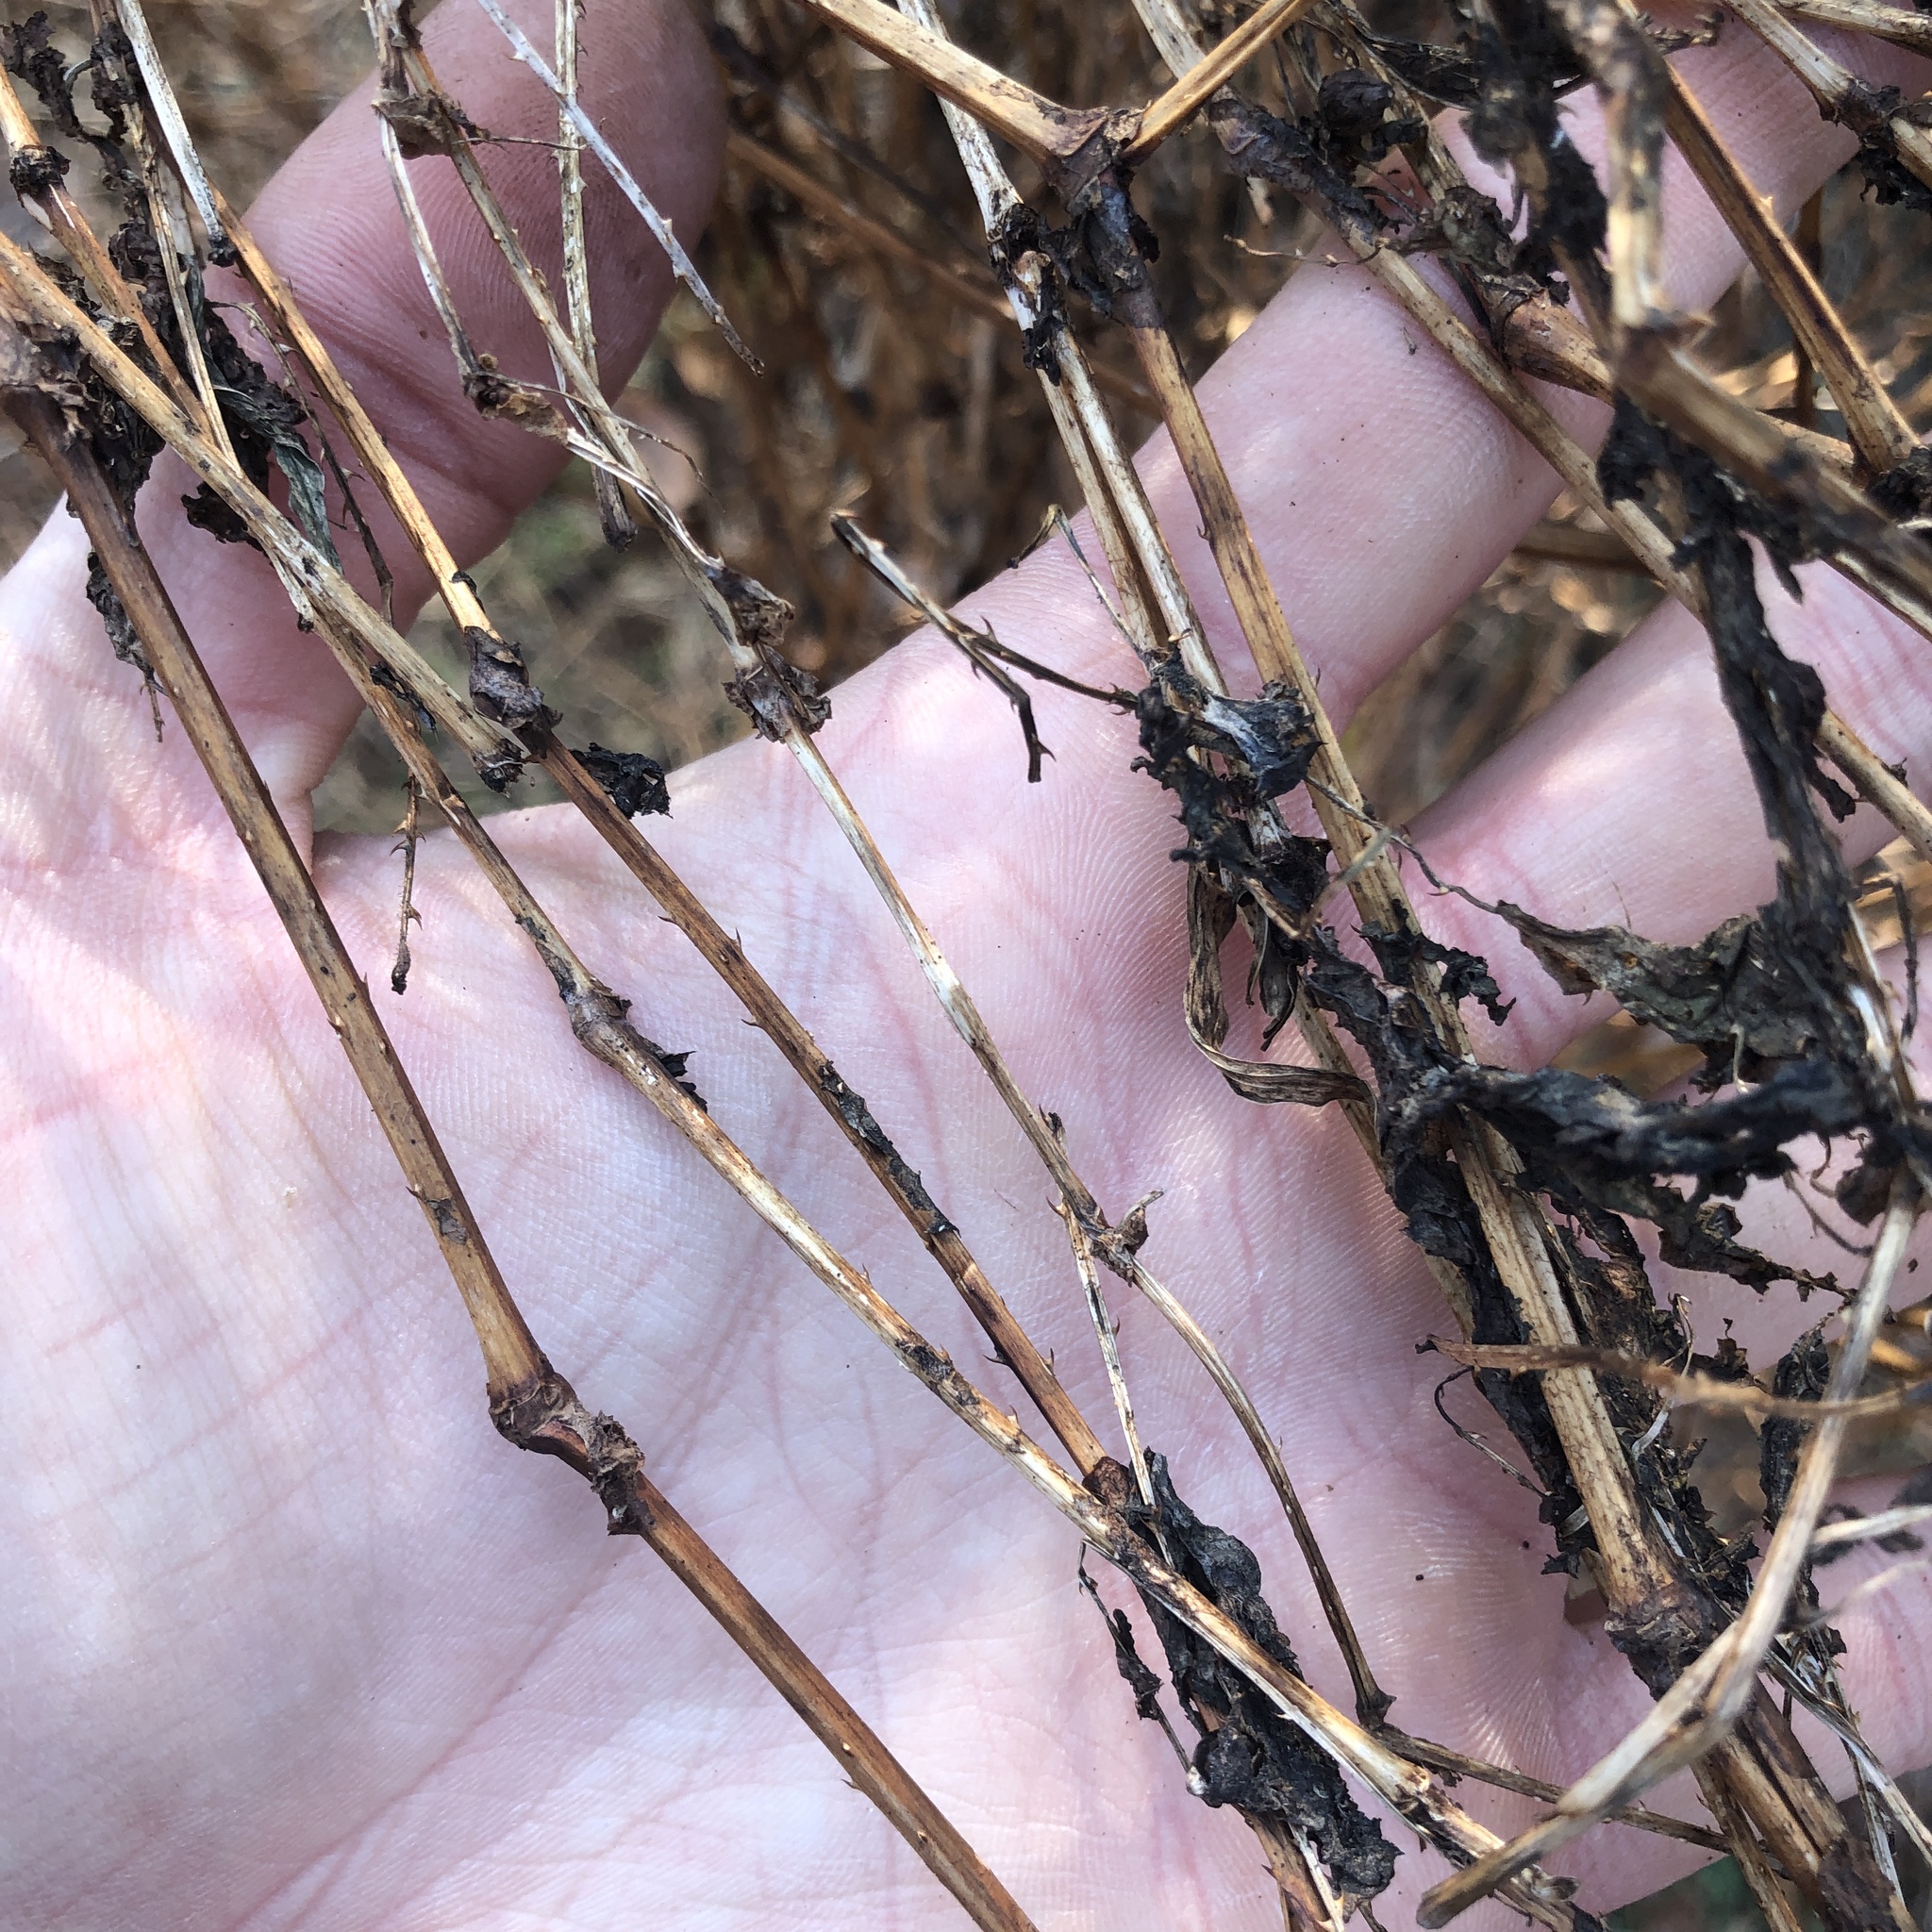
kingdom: Plantae
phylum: Tracheophyta
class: Magnoliopsida
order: Caryophyllales
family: Polygonaceae
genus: Persicaria
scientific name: Persicaria perfoliata
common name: Asiatic tearthumb
